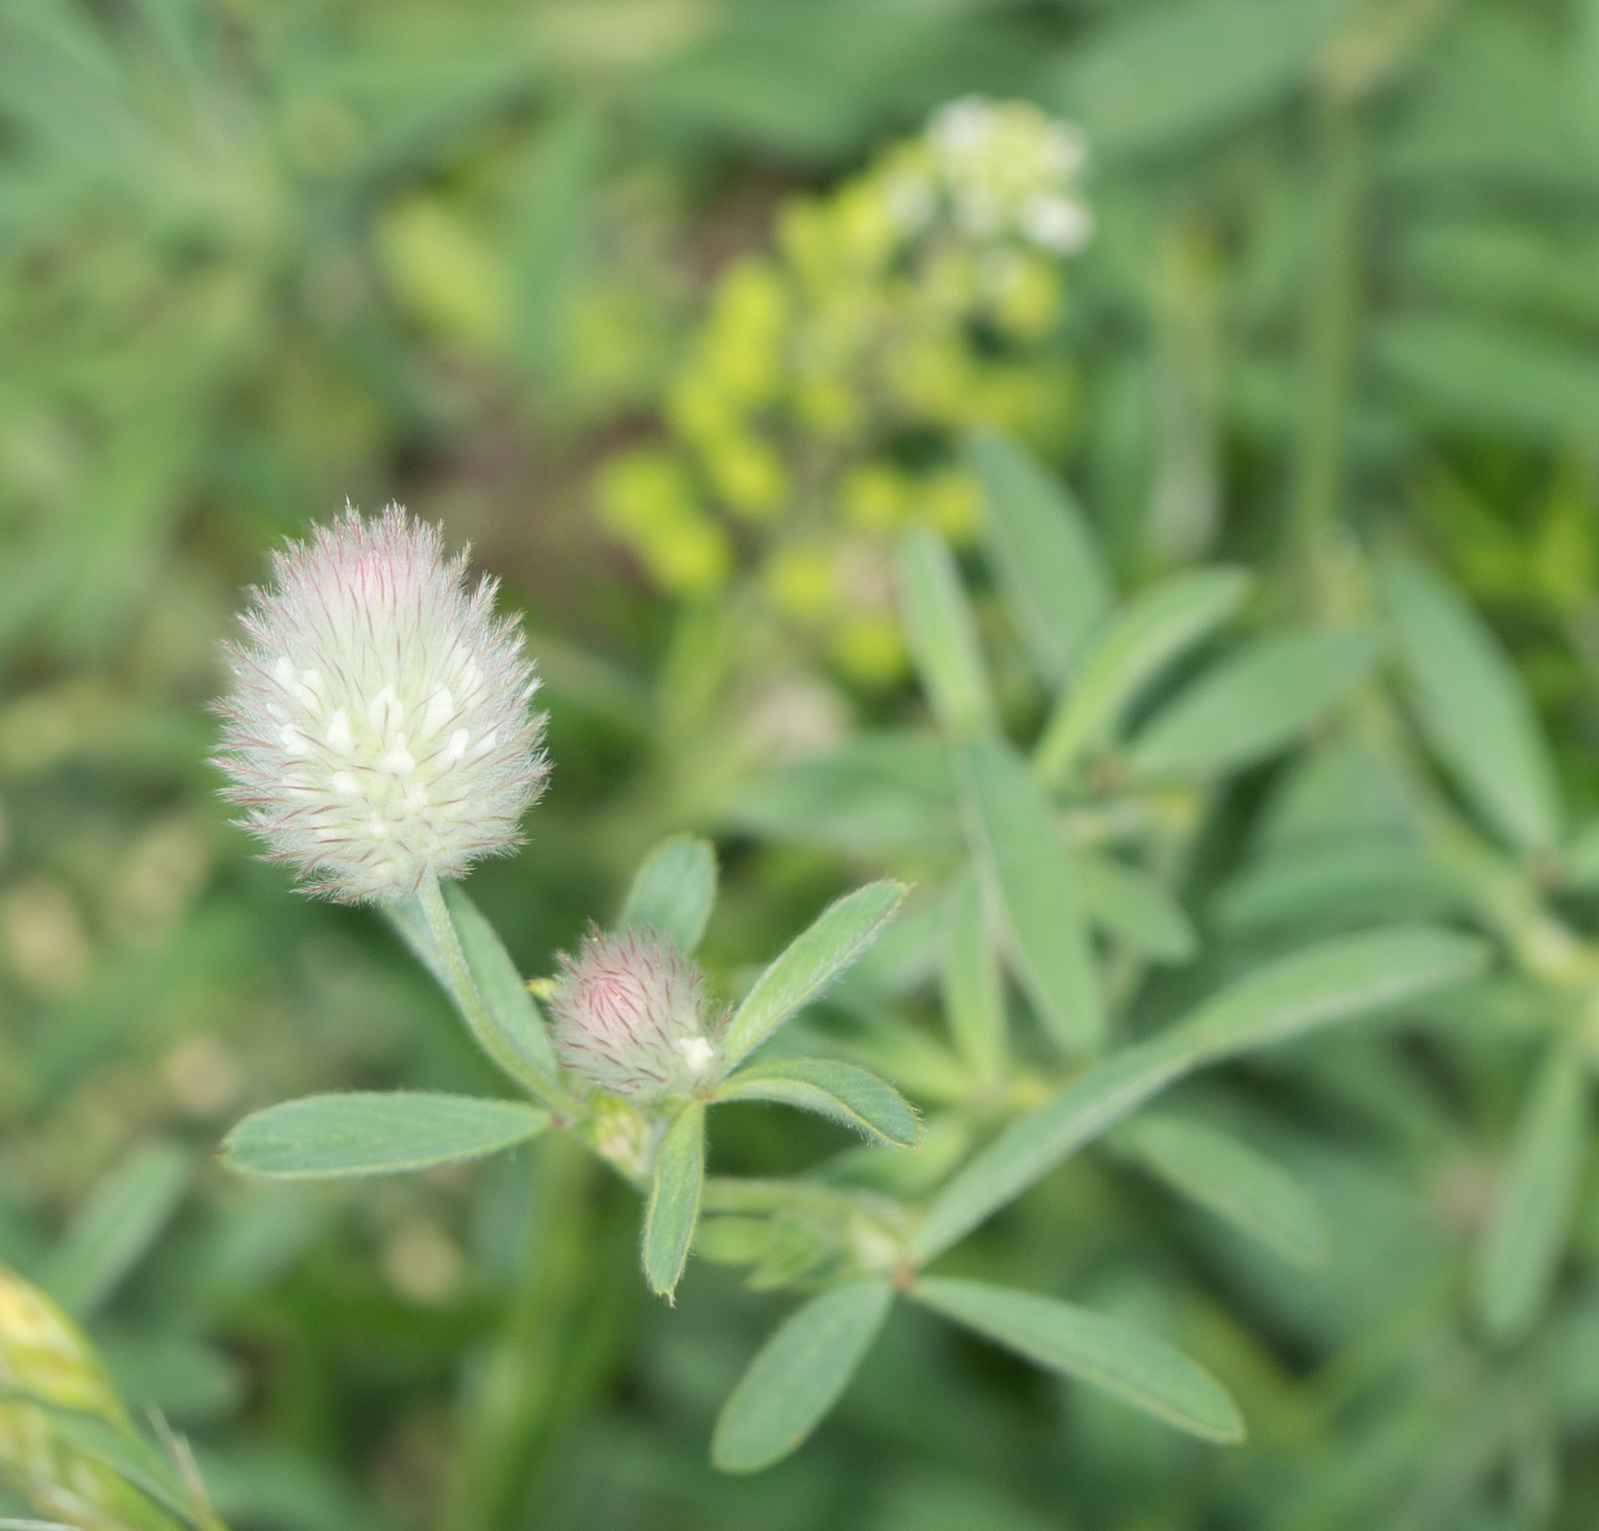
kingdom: Plantae
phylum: Tracheophyta
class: Magnoliopsida
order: Fabales
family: Fabaceae
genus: Trifolium
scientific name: Trifolium arvense
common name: Hare's-foot clover
